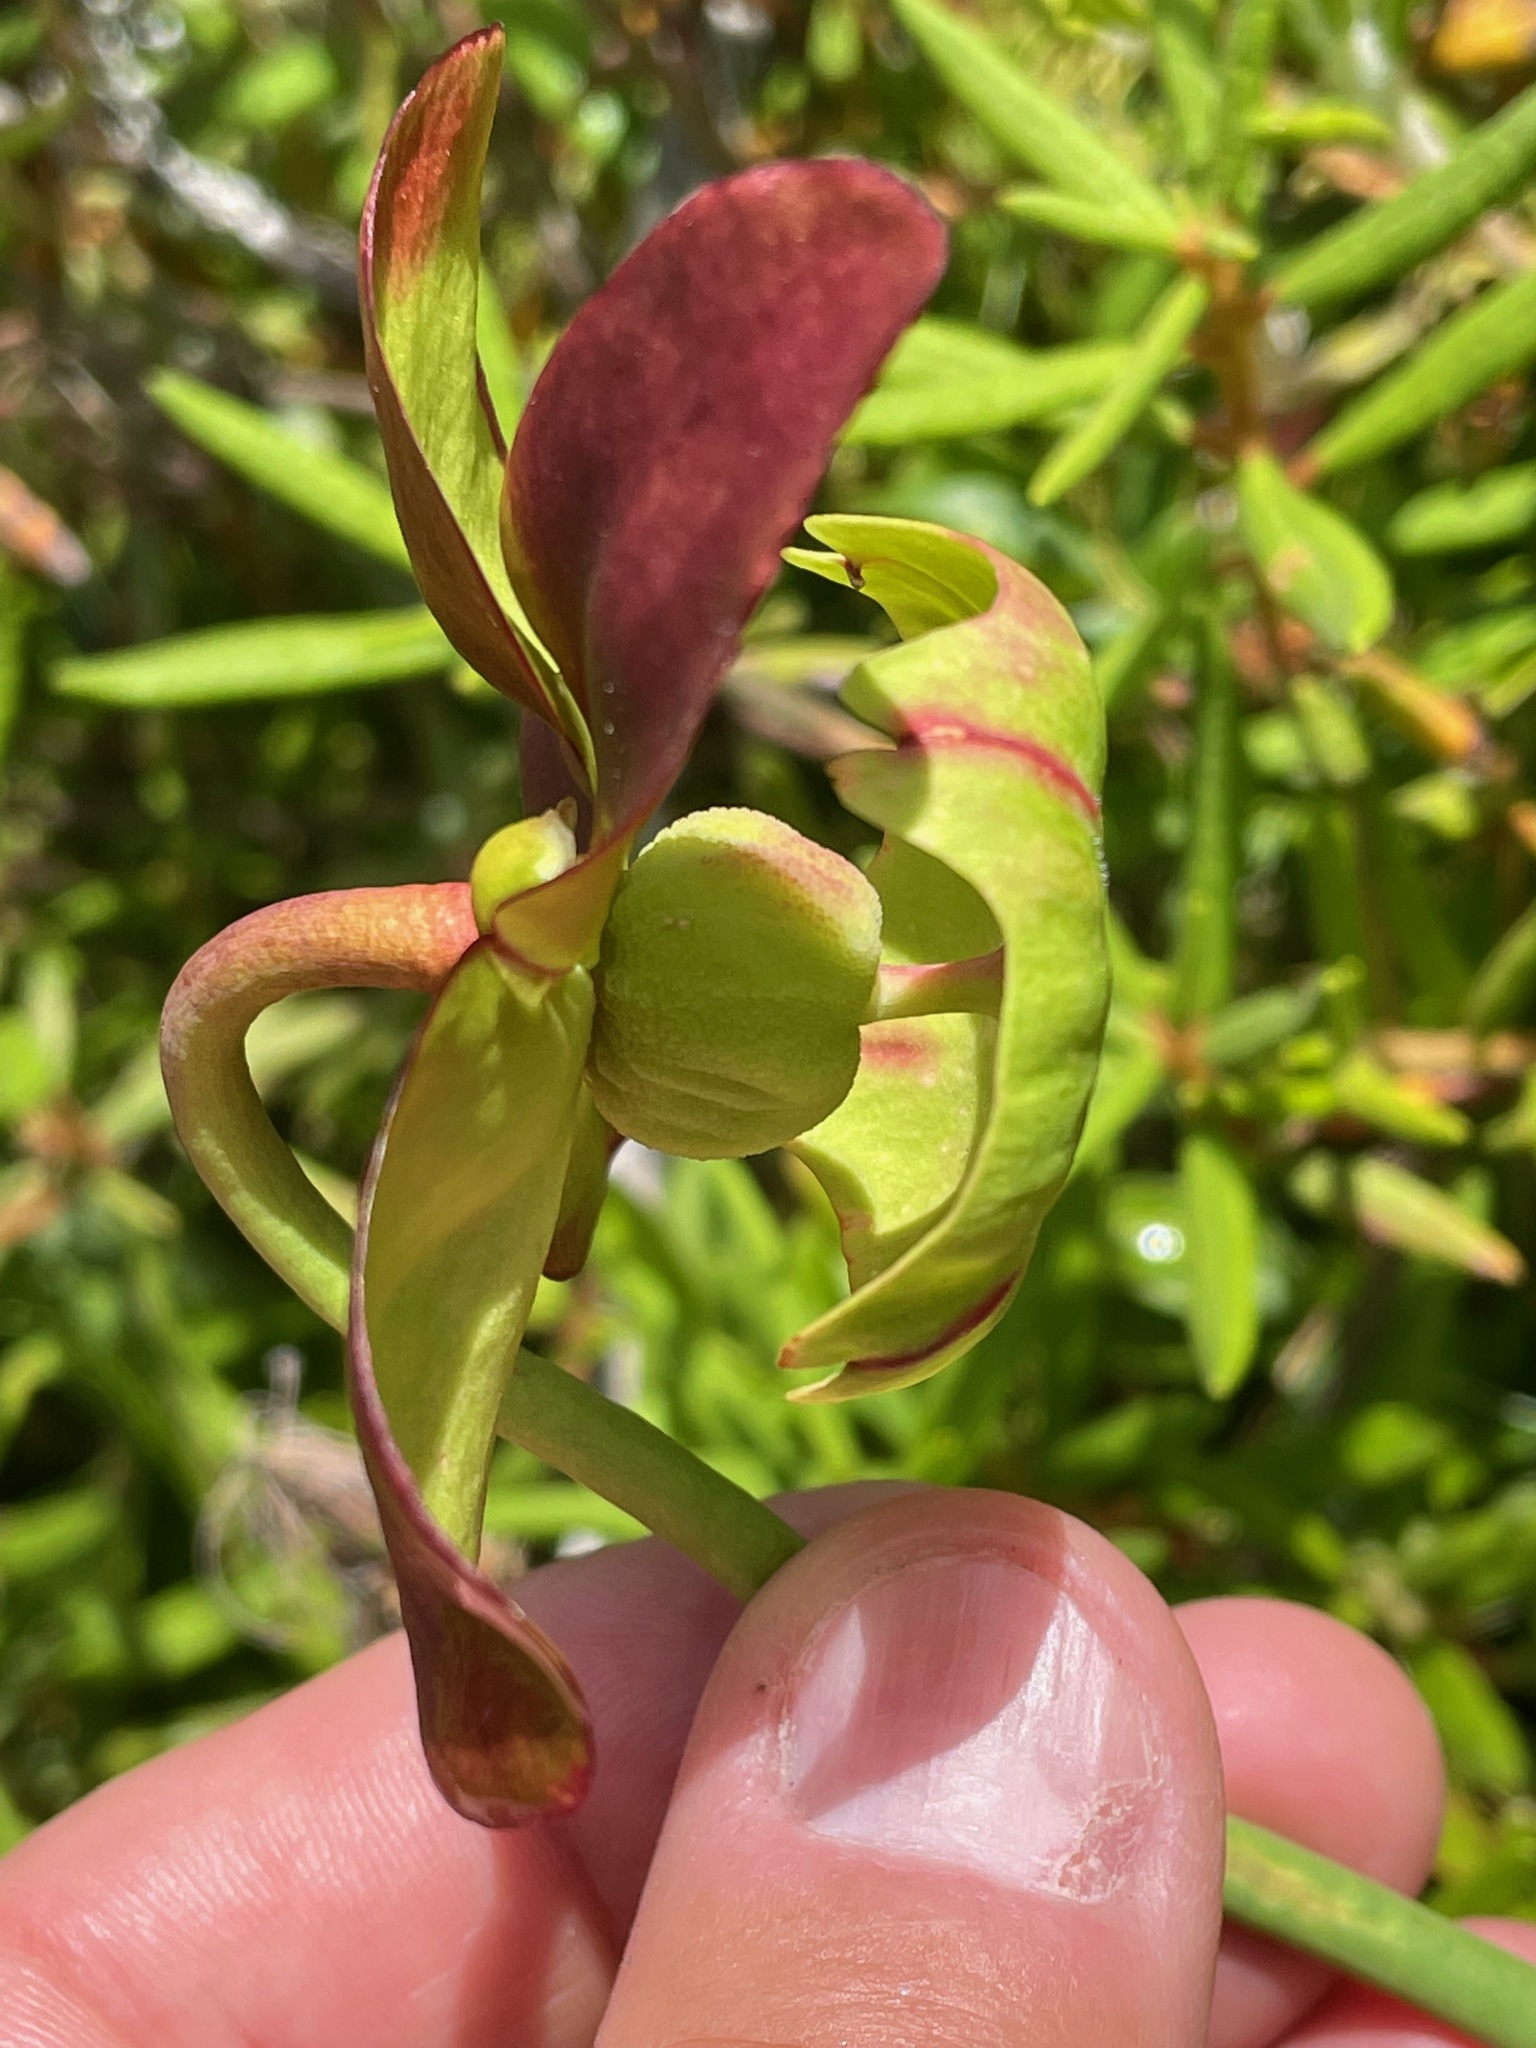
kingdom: Plantae
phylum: Tracheophyta
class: Magnoliopsida
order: Ericales
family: Sarraceniaceae
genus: Sarracenia
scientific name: Sarracenia purpurea
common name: Pitcherplant
